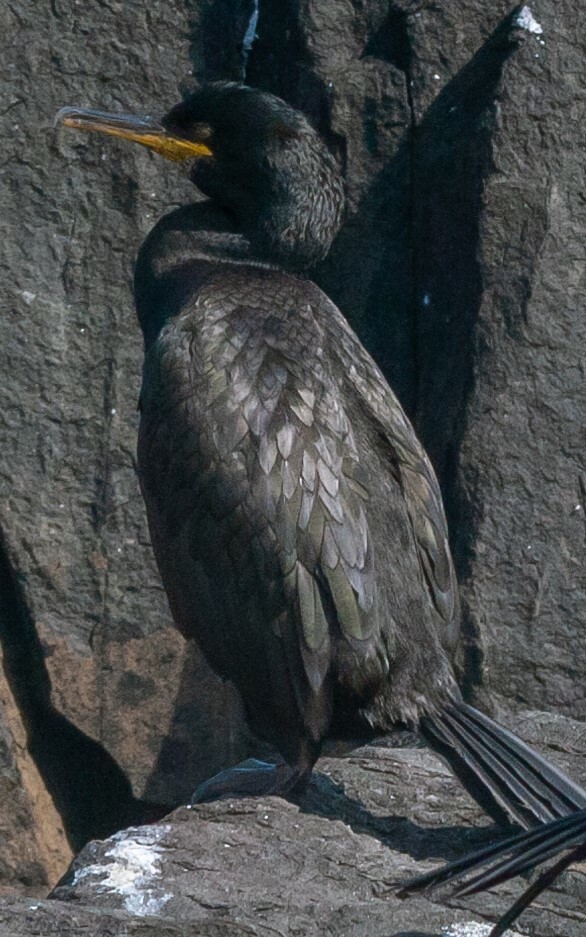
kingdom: Animalia
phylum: Chordata
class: Aves
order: Suliformes
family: Phalacrocoracidae
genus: Phalacrocorax
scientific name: Phalacrocorax aristotelis
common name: European shag
